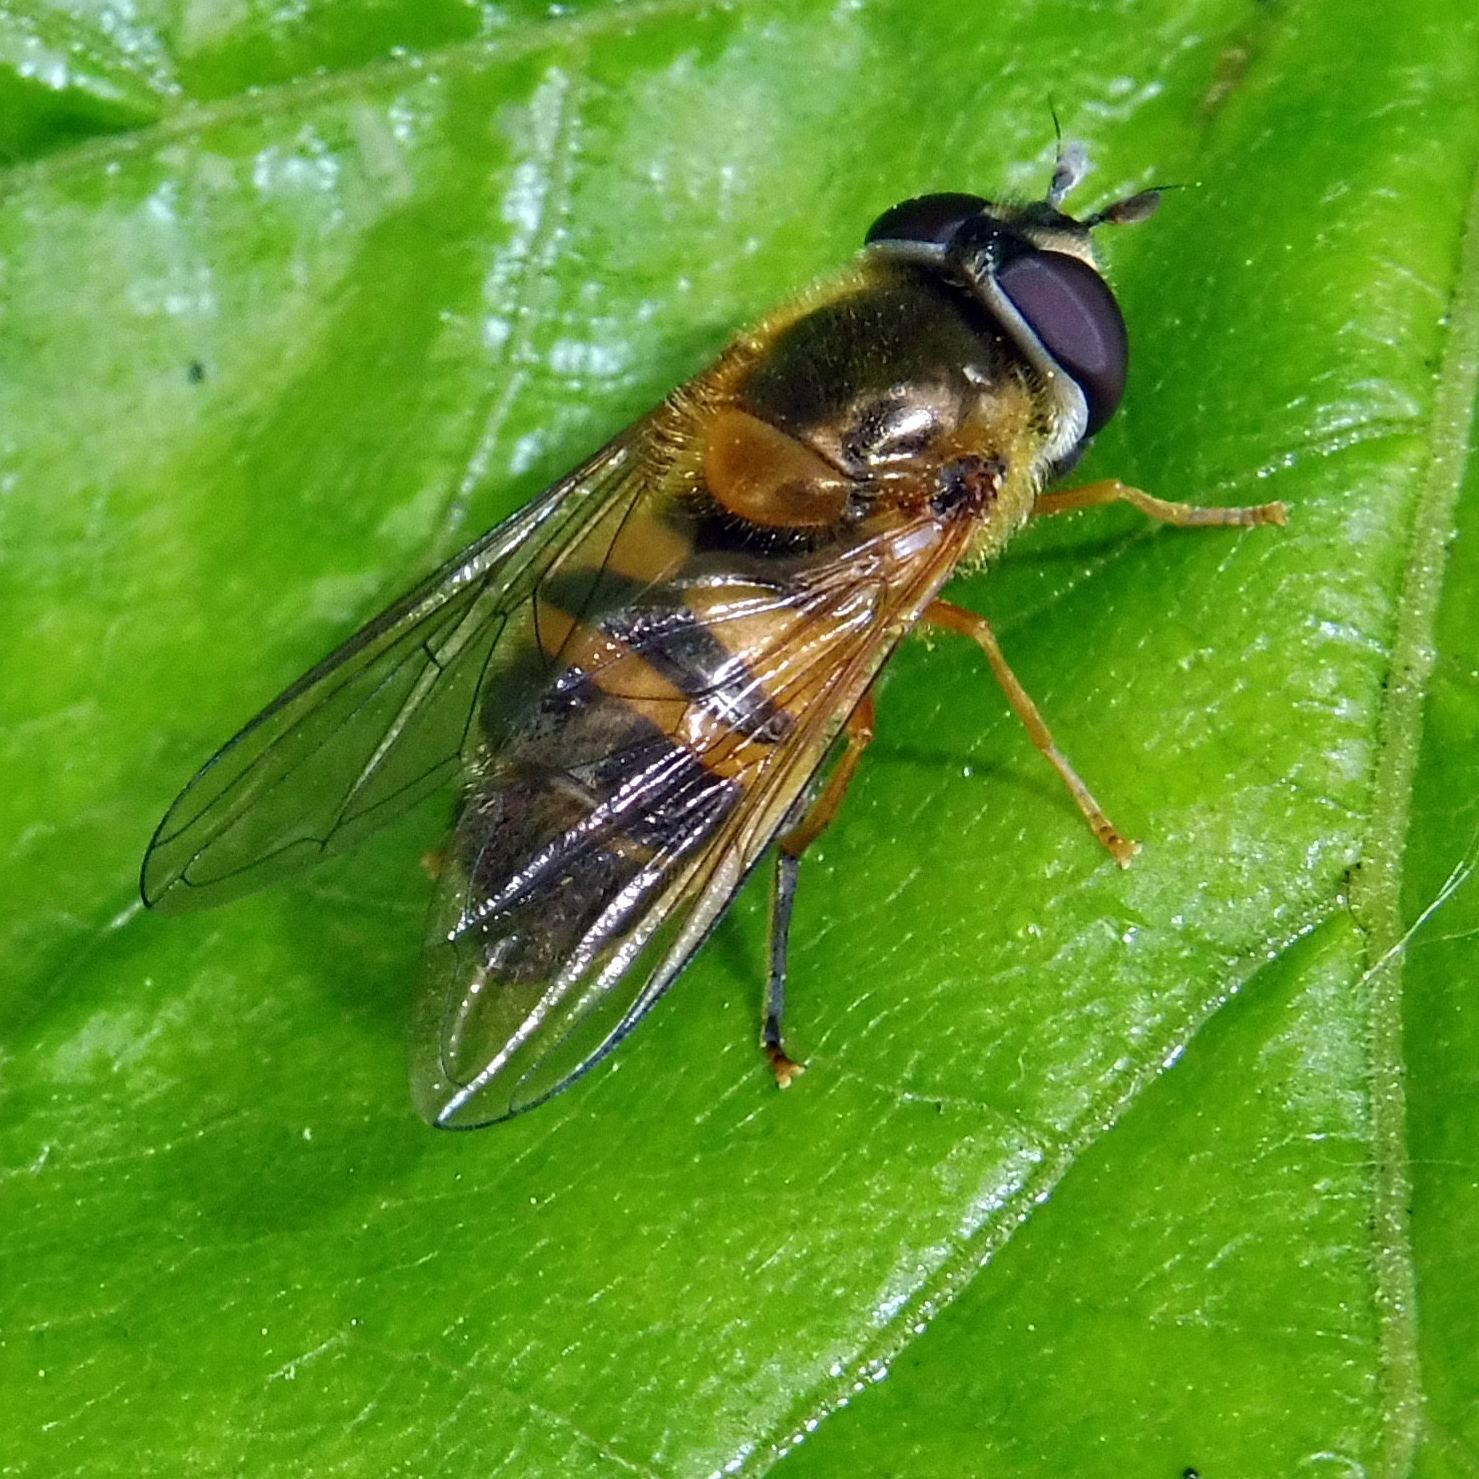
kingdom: Animalia
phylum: Arthropoda
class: Insecta
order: Diptera
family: Syrphidae
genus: Epistrophe
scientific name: Epistrophe eligans
